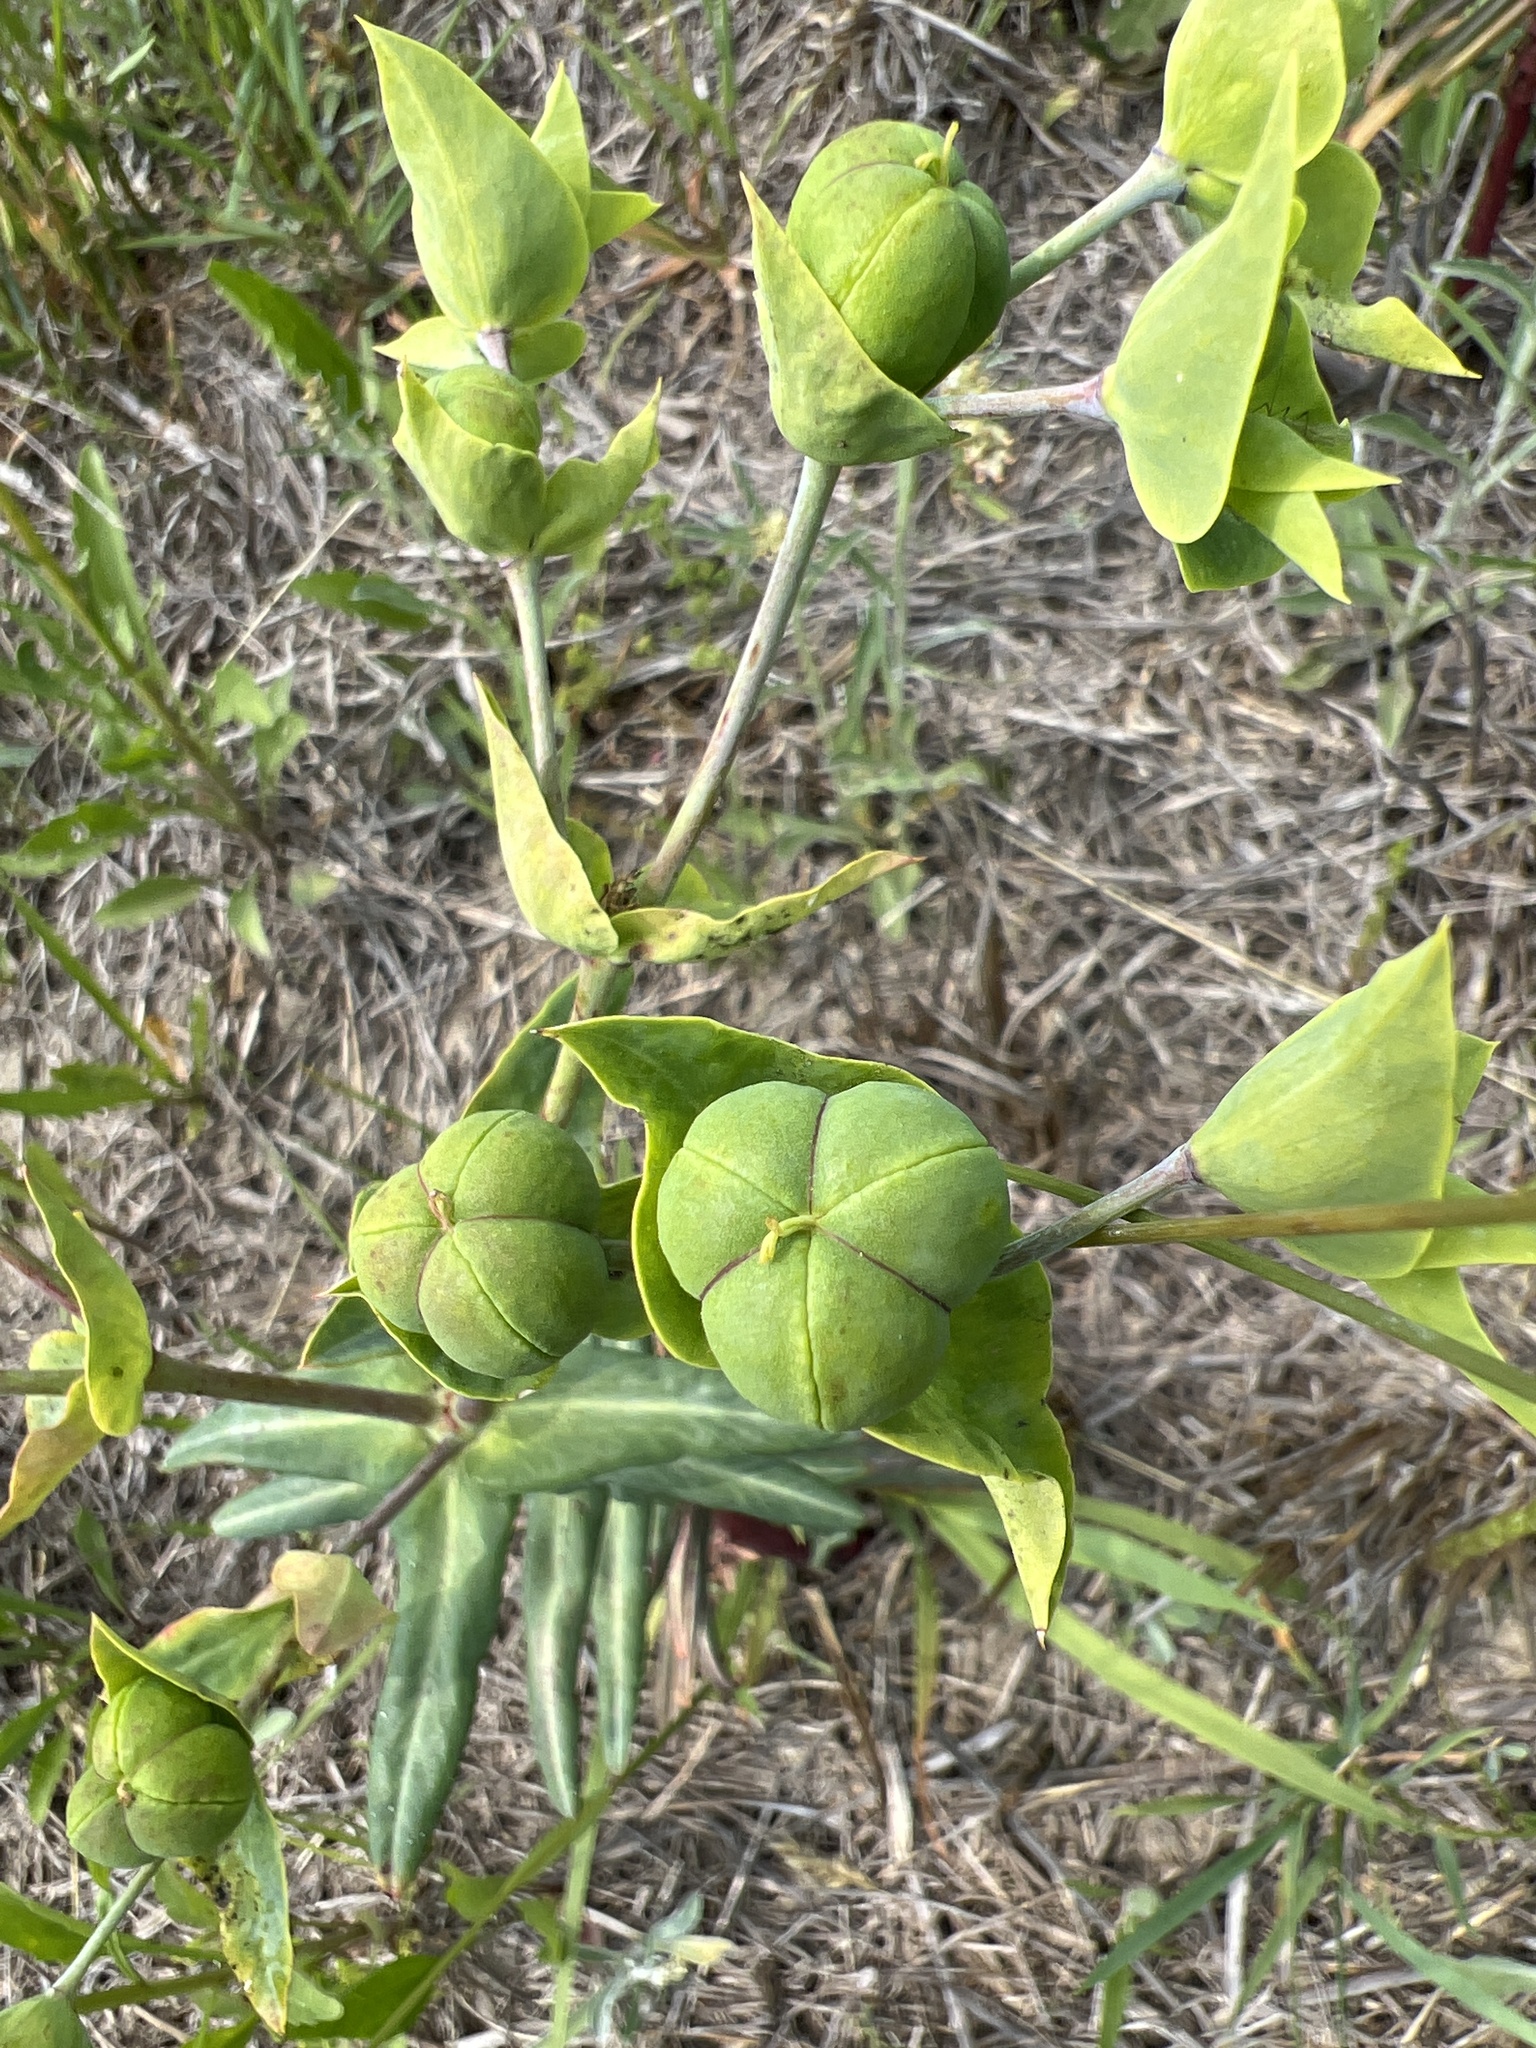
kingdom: Plantae
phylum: Tracheophyta
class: Magnoliopsida
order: Malpighiales
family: Euphorbiaceae
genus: Euphorbia
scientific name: Euphorbia lathyris
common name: Caper spurge
